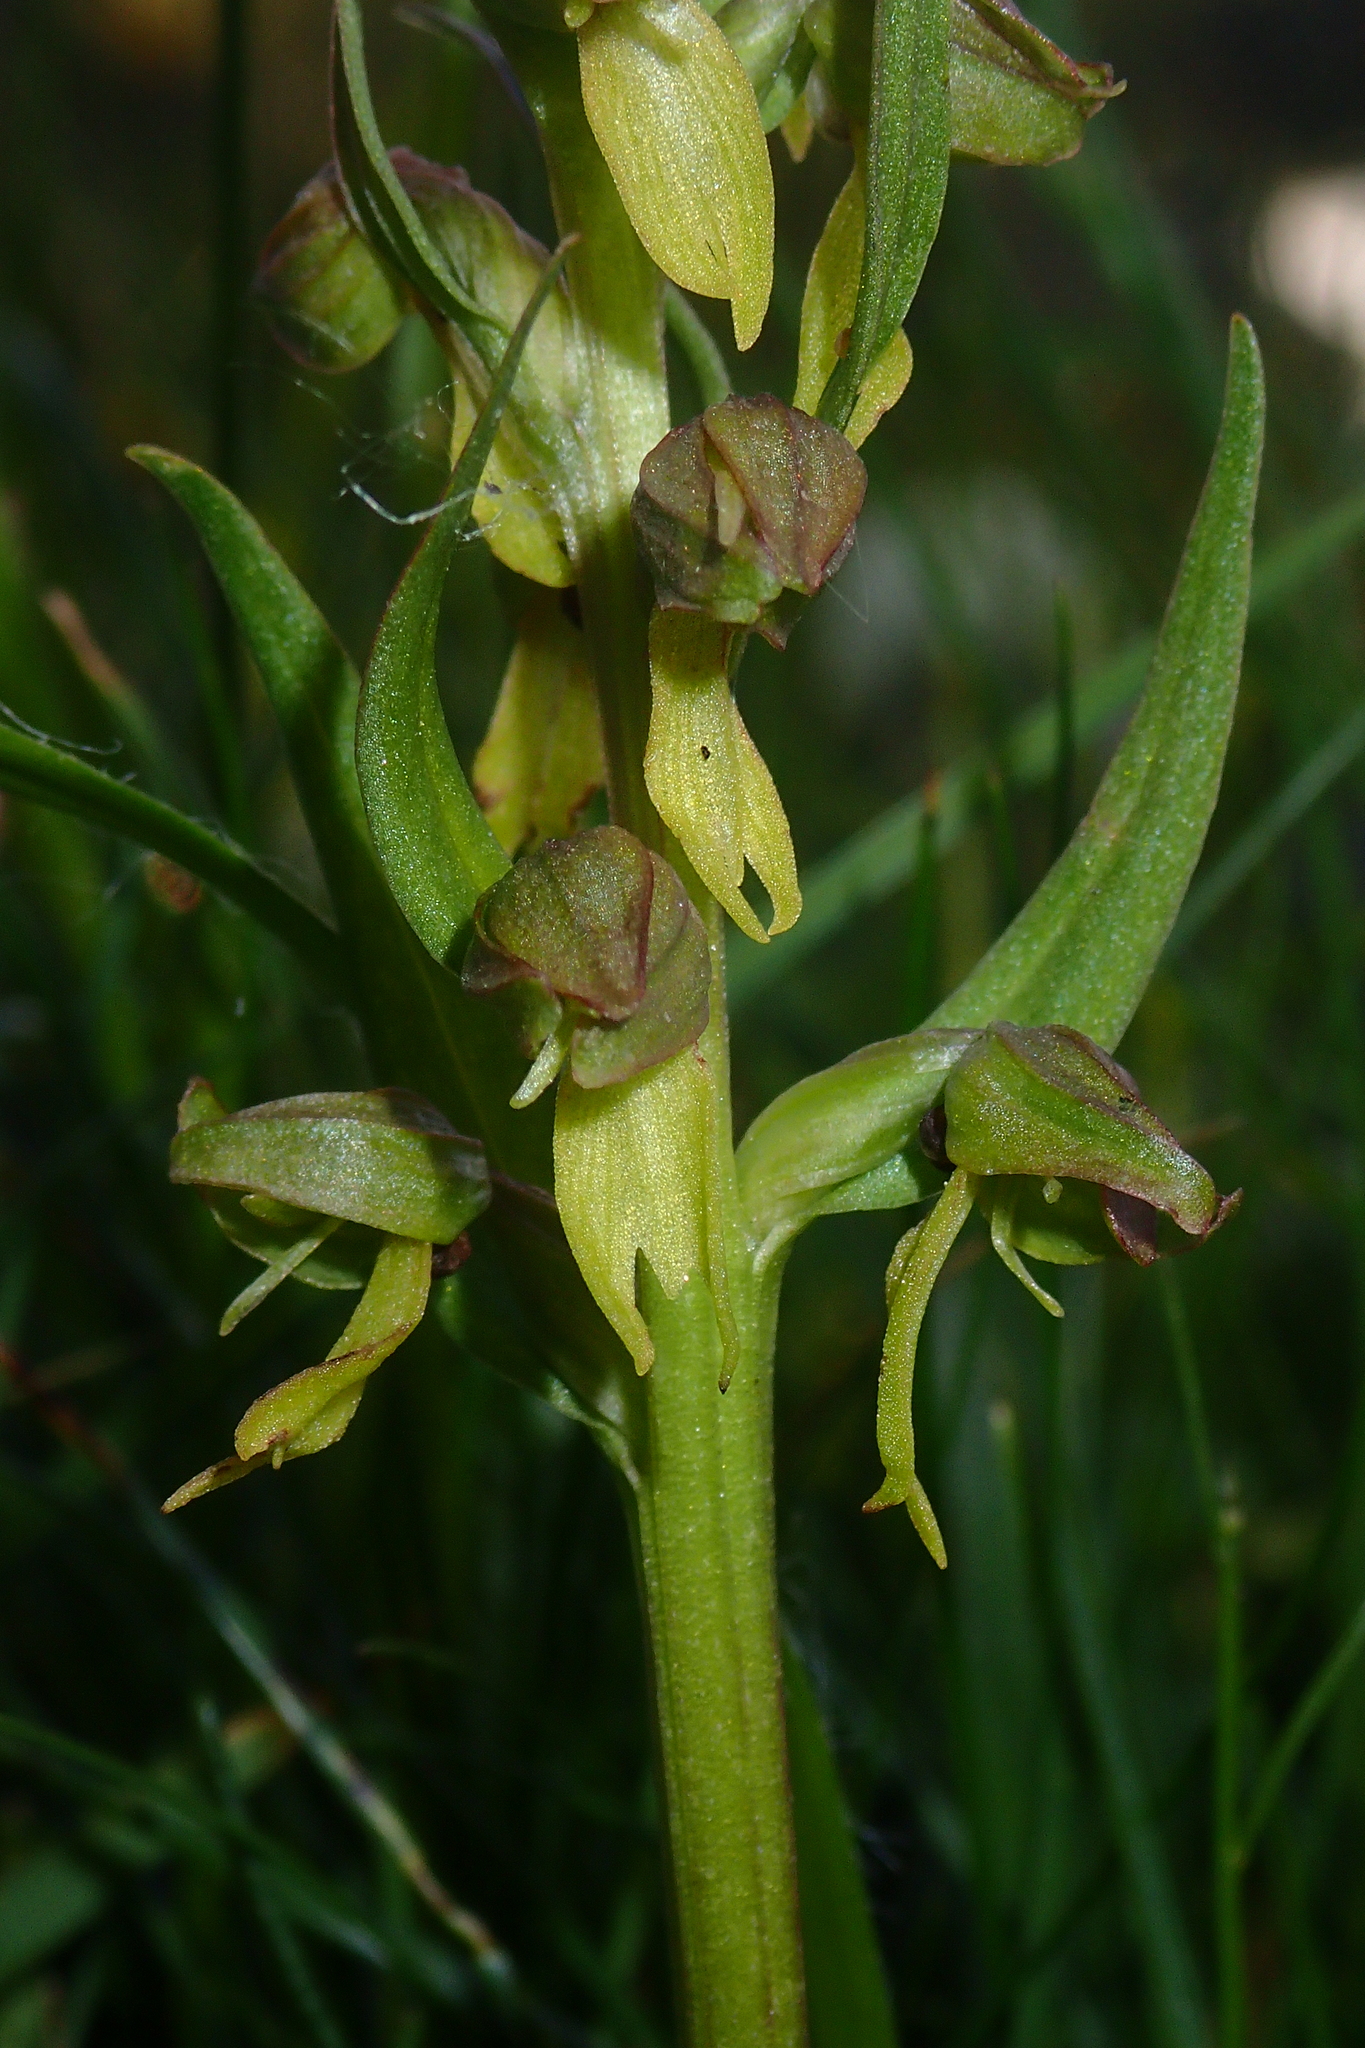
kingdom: Plantae
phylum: Tracheophyta
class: Liliopsida
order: Asparagales
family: Orchidaceae
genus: Dactylorhiza
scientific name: Dactylorhiza viridis
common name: Longbract frog orchid
